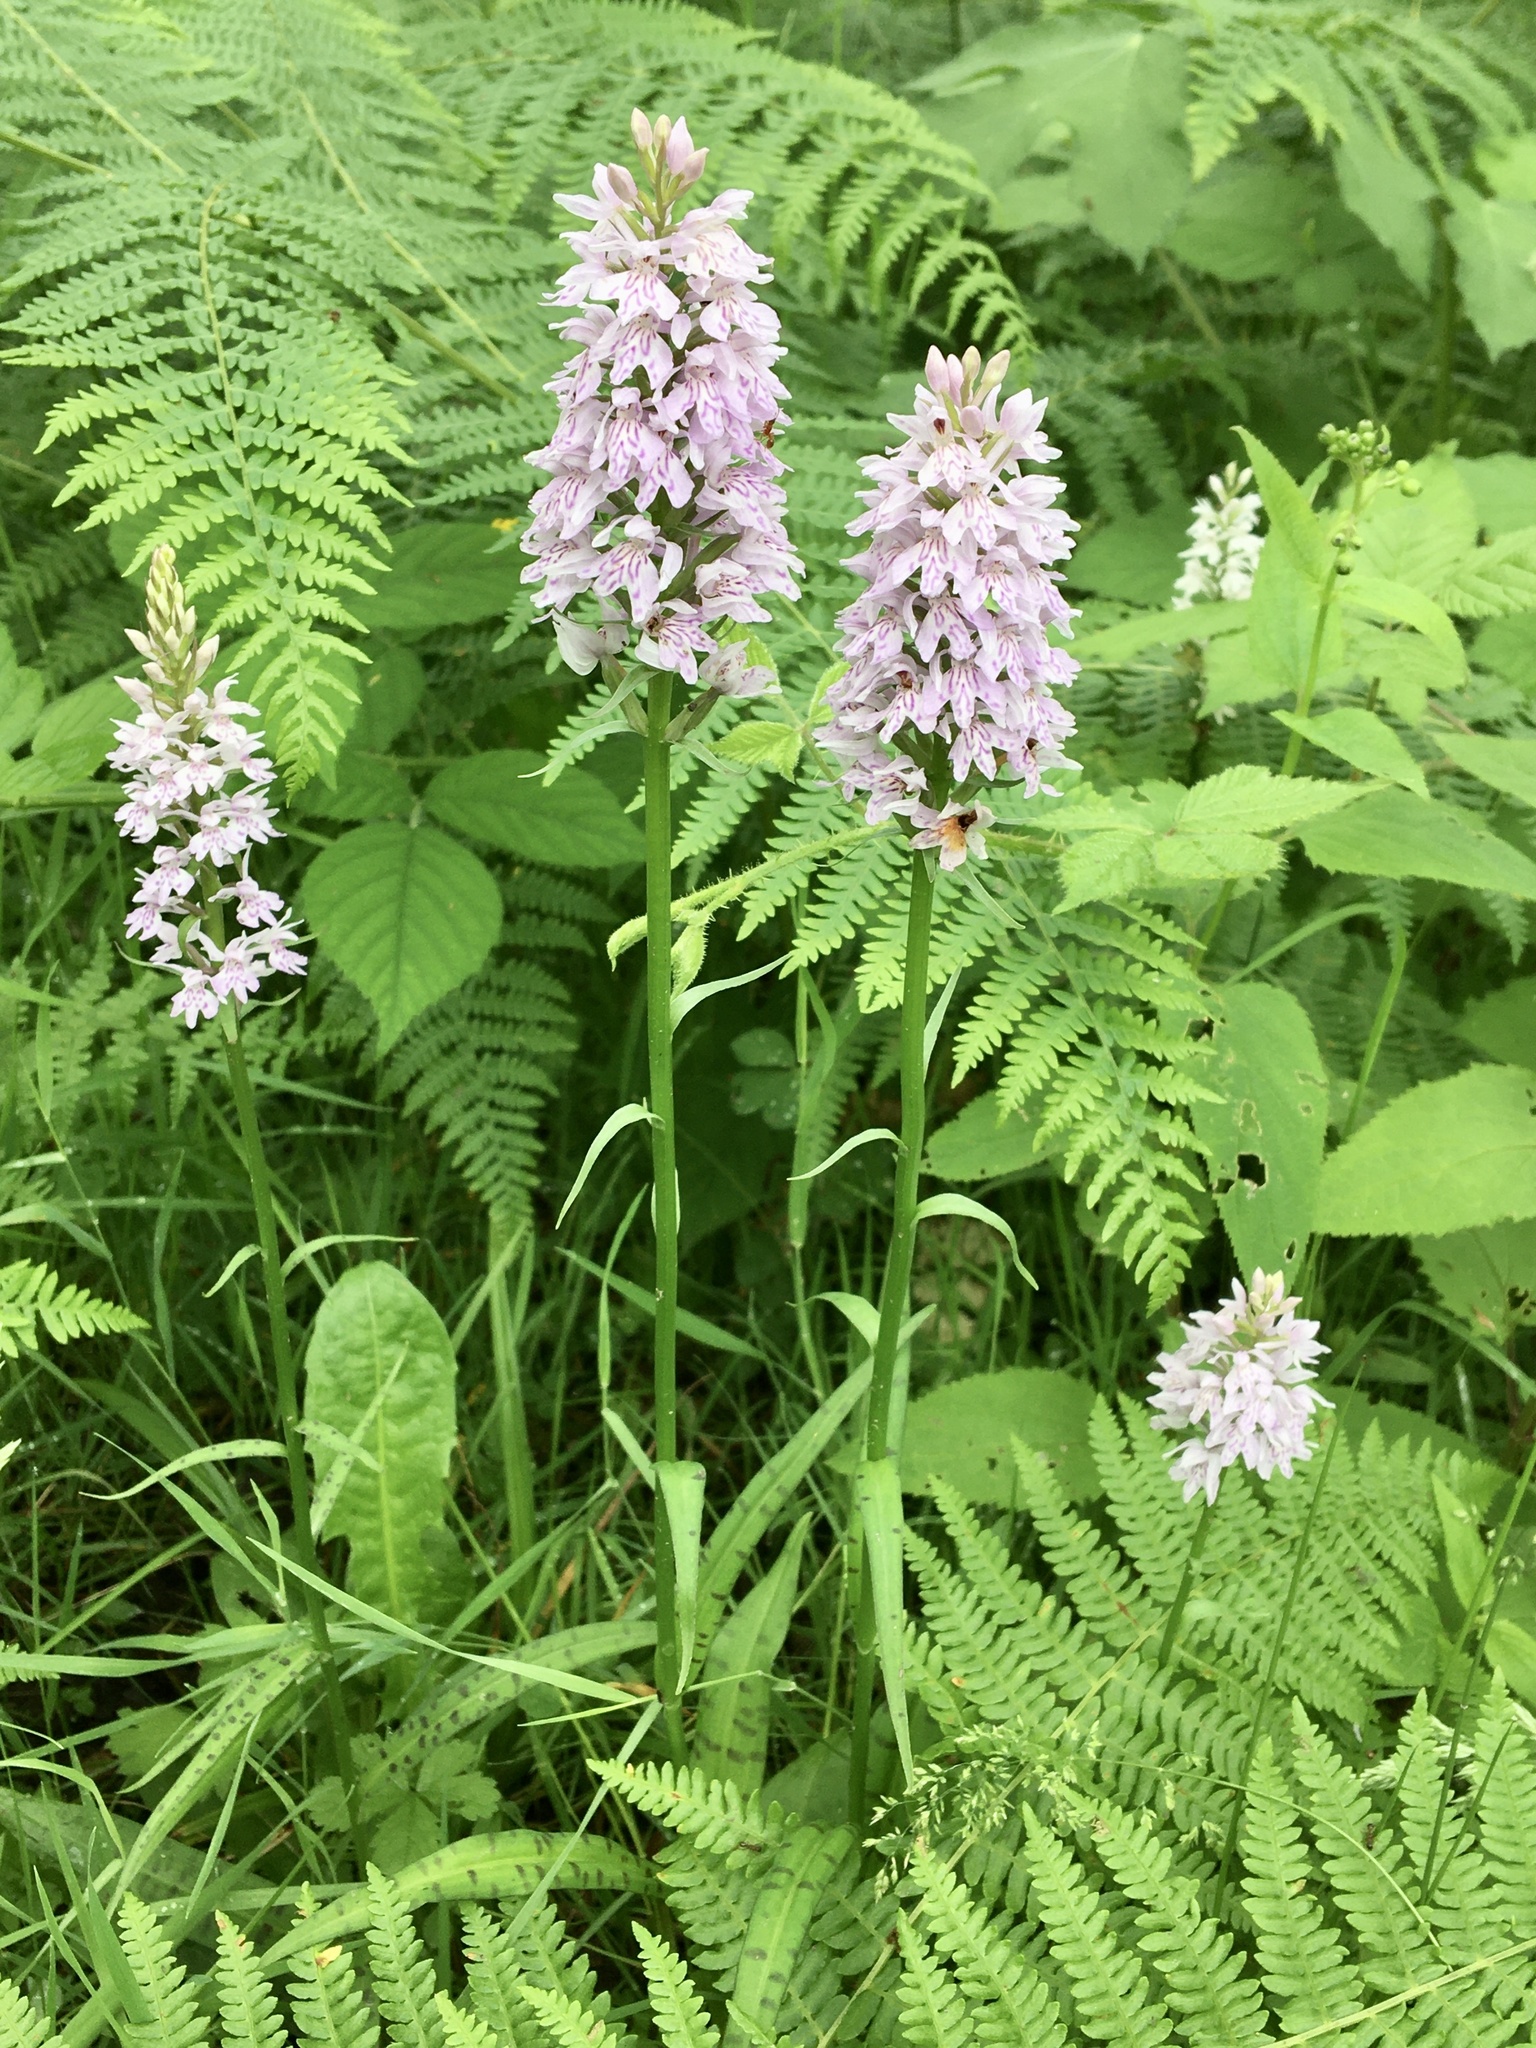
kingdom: Plantae
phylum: Tracheophyta
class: Liliopsida
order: Asparagales
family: Orchidaceae
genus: Dactylorhiza
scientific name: Dactylorhiza maculata
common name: Heath spotted-orchid
